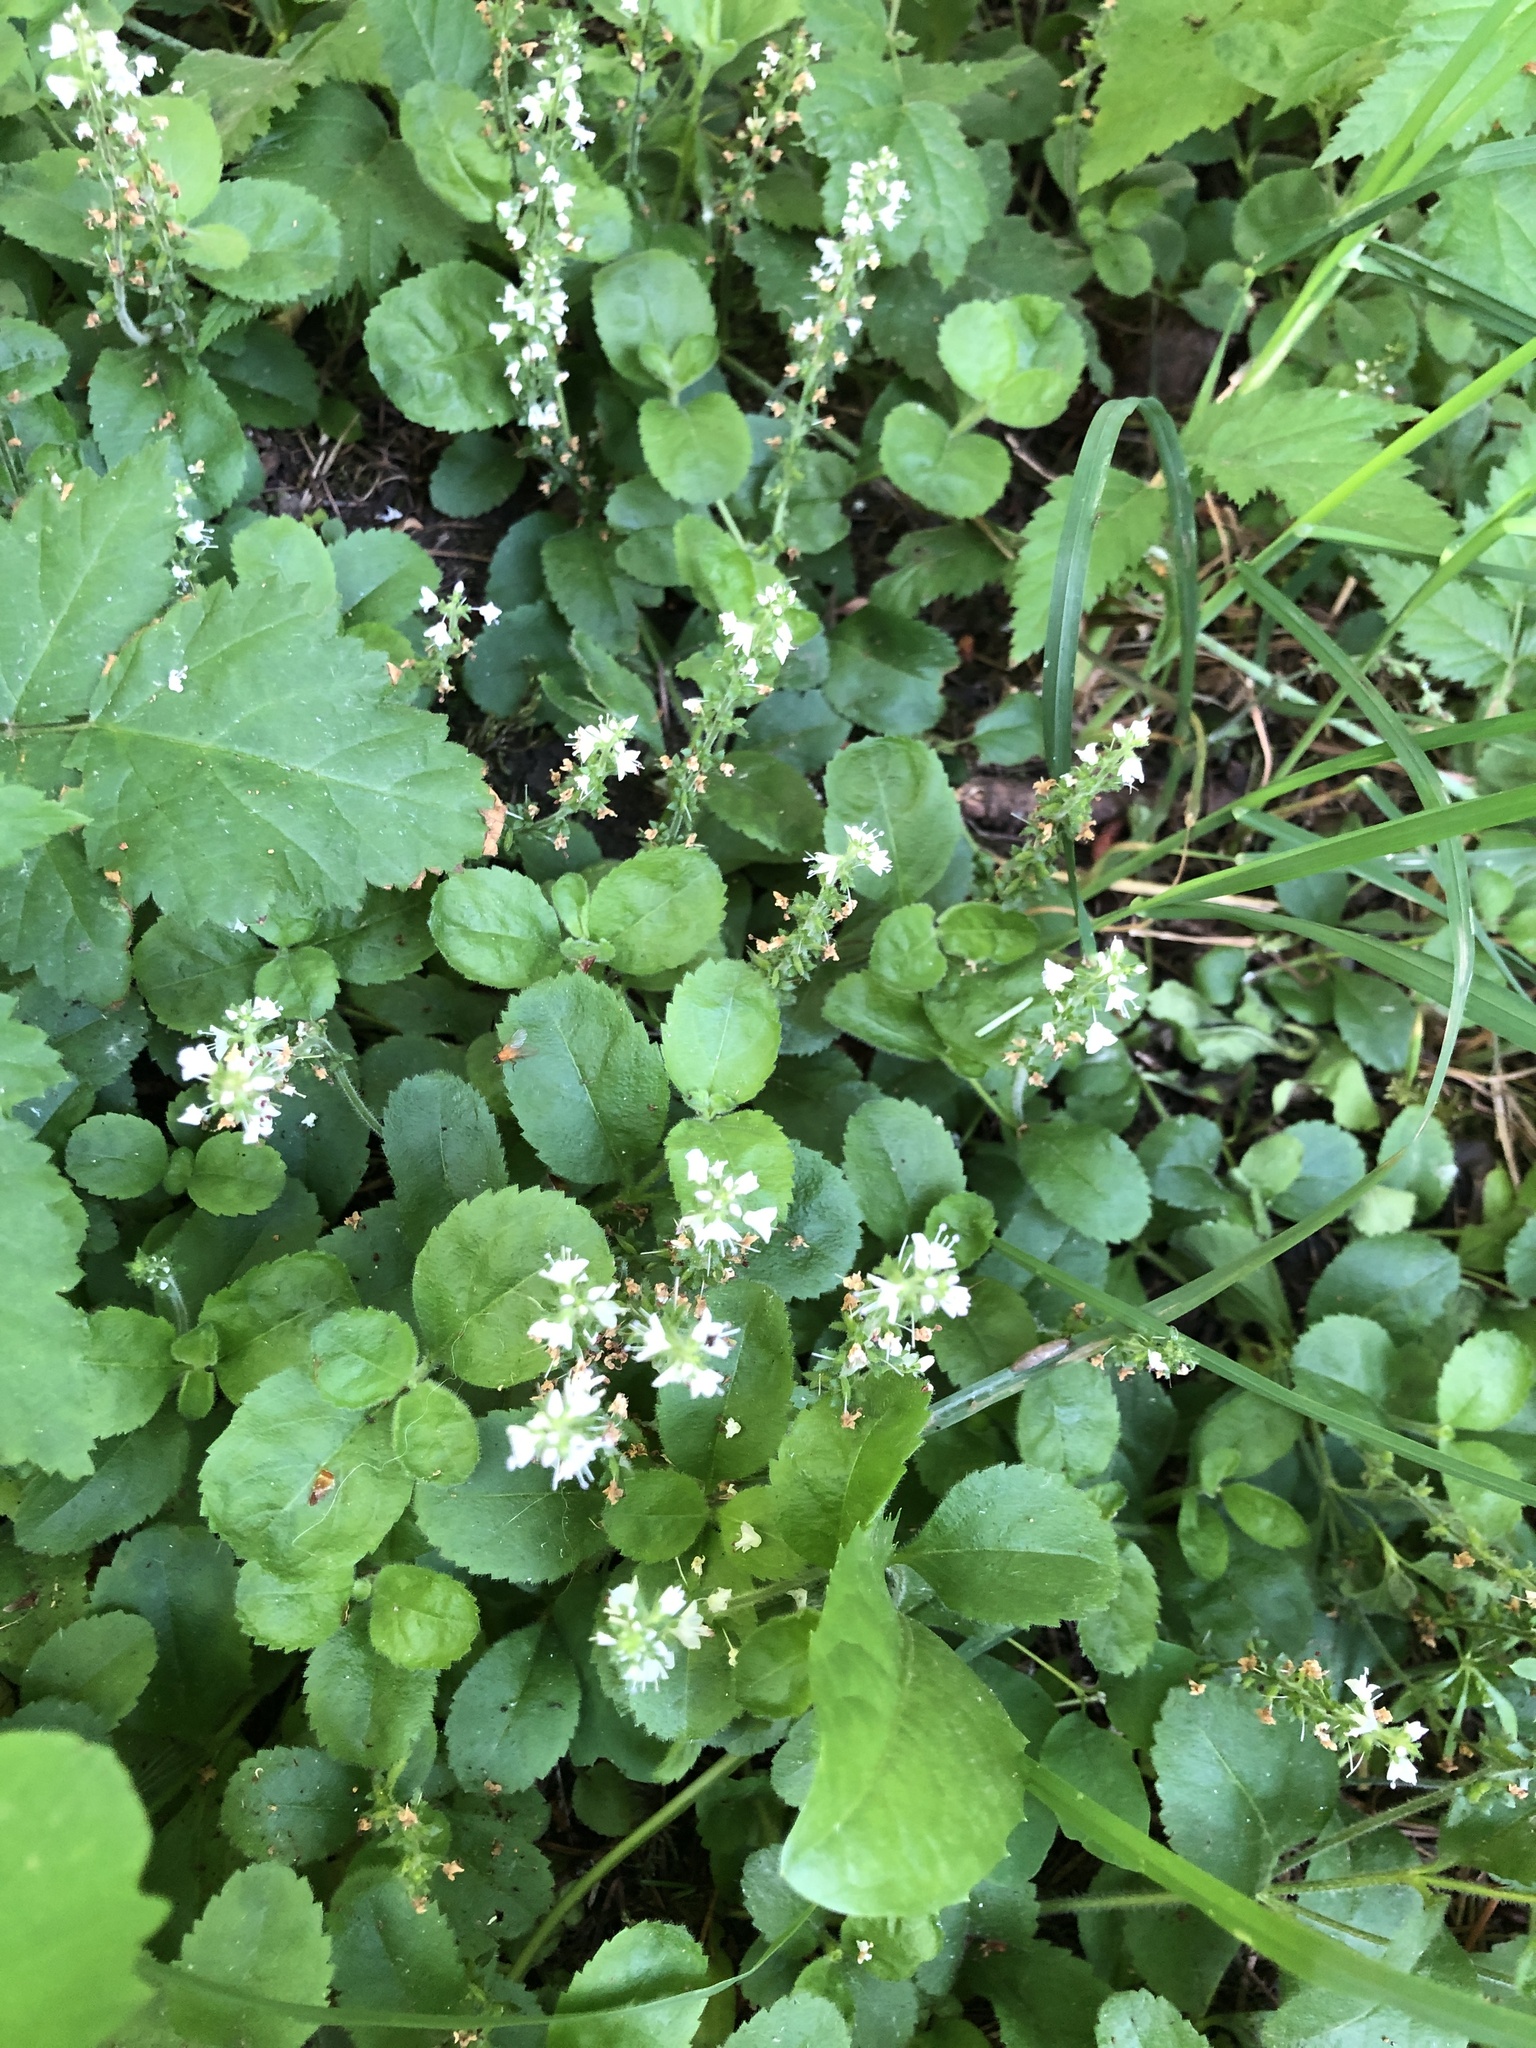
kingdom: Plantae
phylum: Tracheophyta
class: Magnoliopsida
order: Lamiales
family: Plantaginaceae
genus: Veronica
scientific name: Veronica officinalis
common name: Common speedwell
